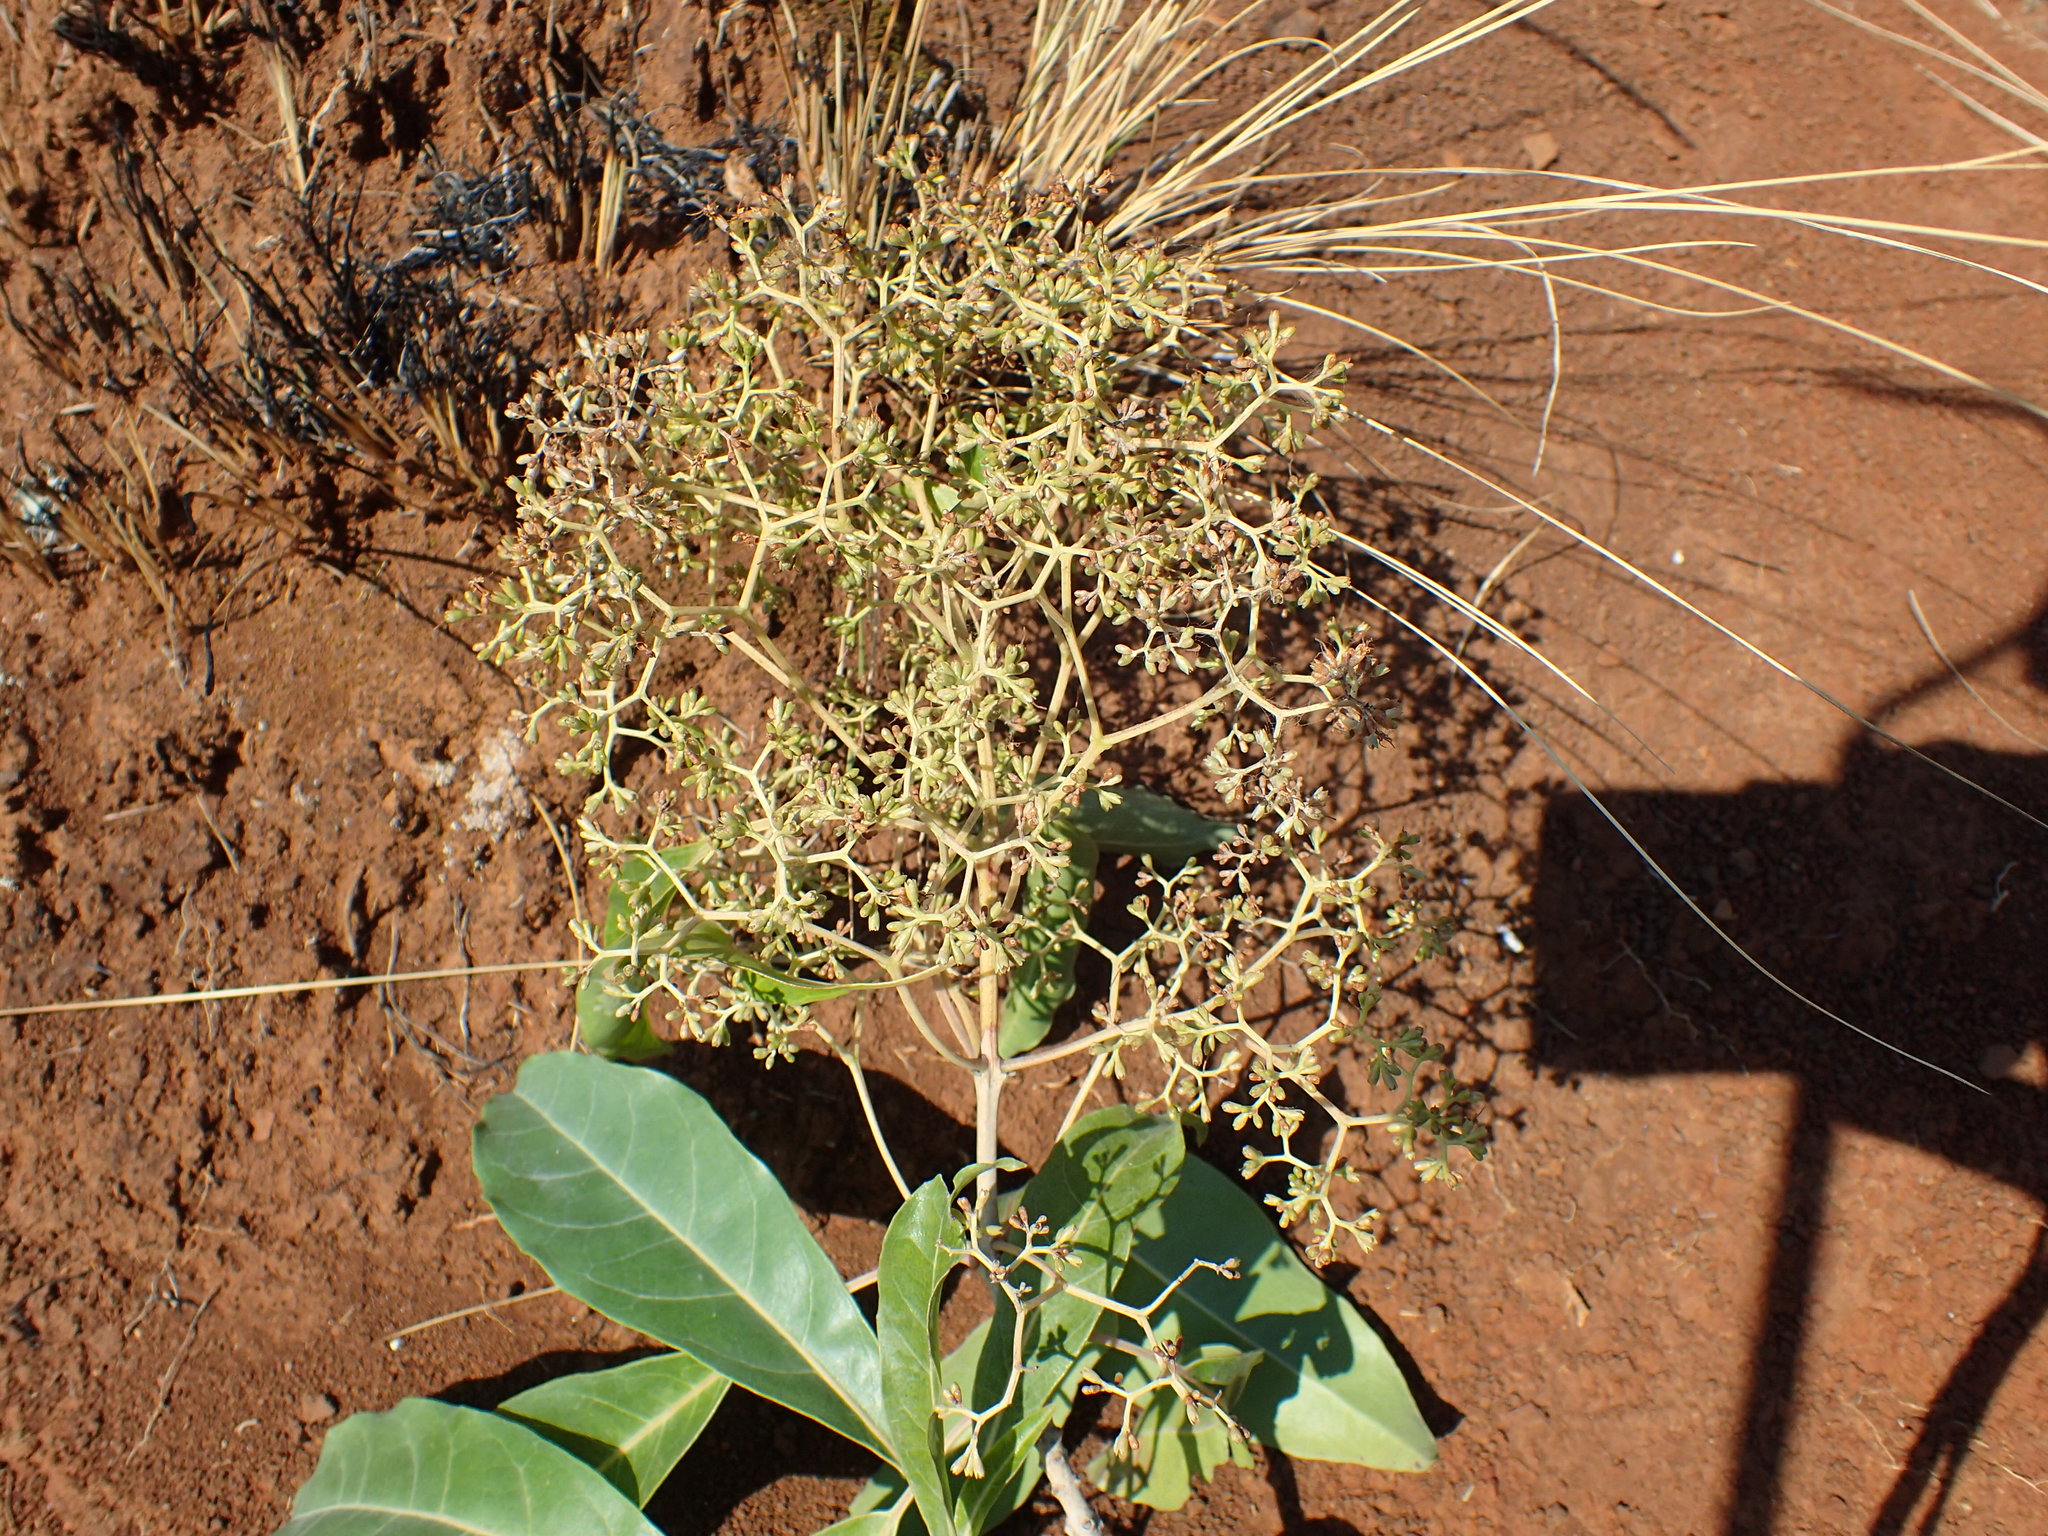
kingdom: Plantae
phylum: Tracheophyta
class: Magnoliopsida
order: Lamiales
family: Stilbaceae
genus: Nuxia
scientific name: Nuxia floribunda
